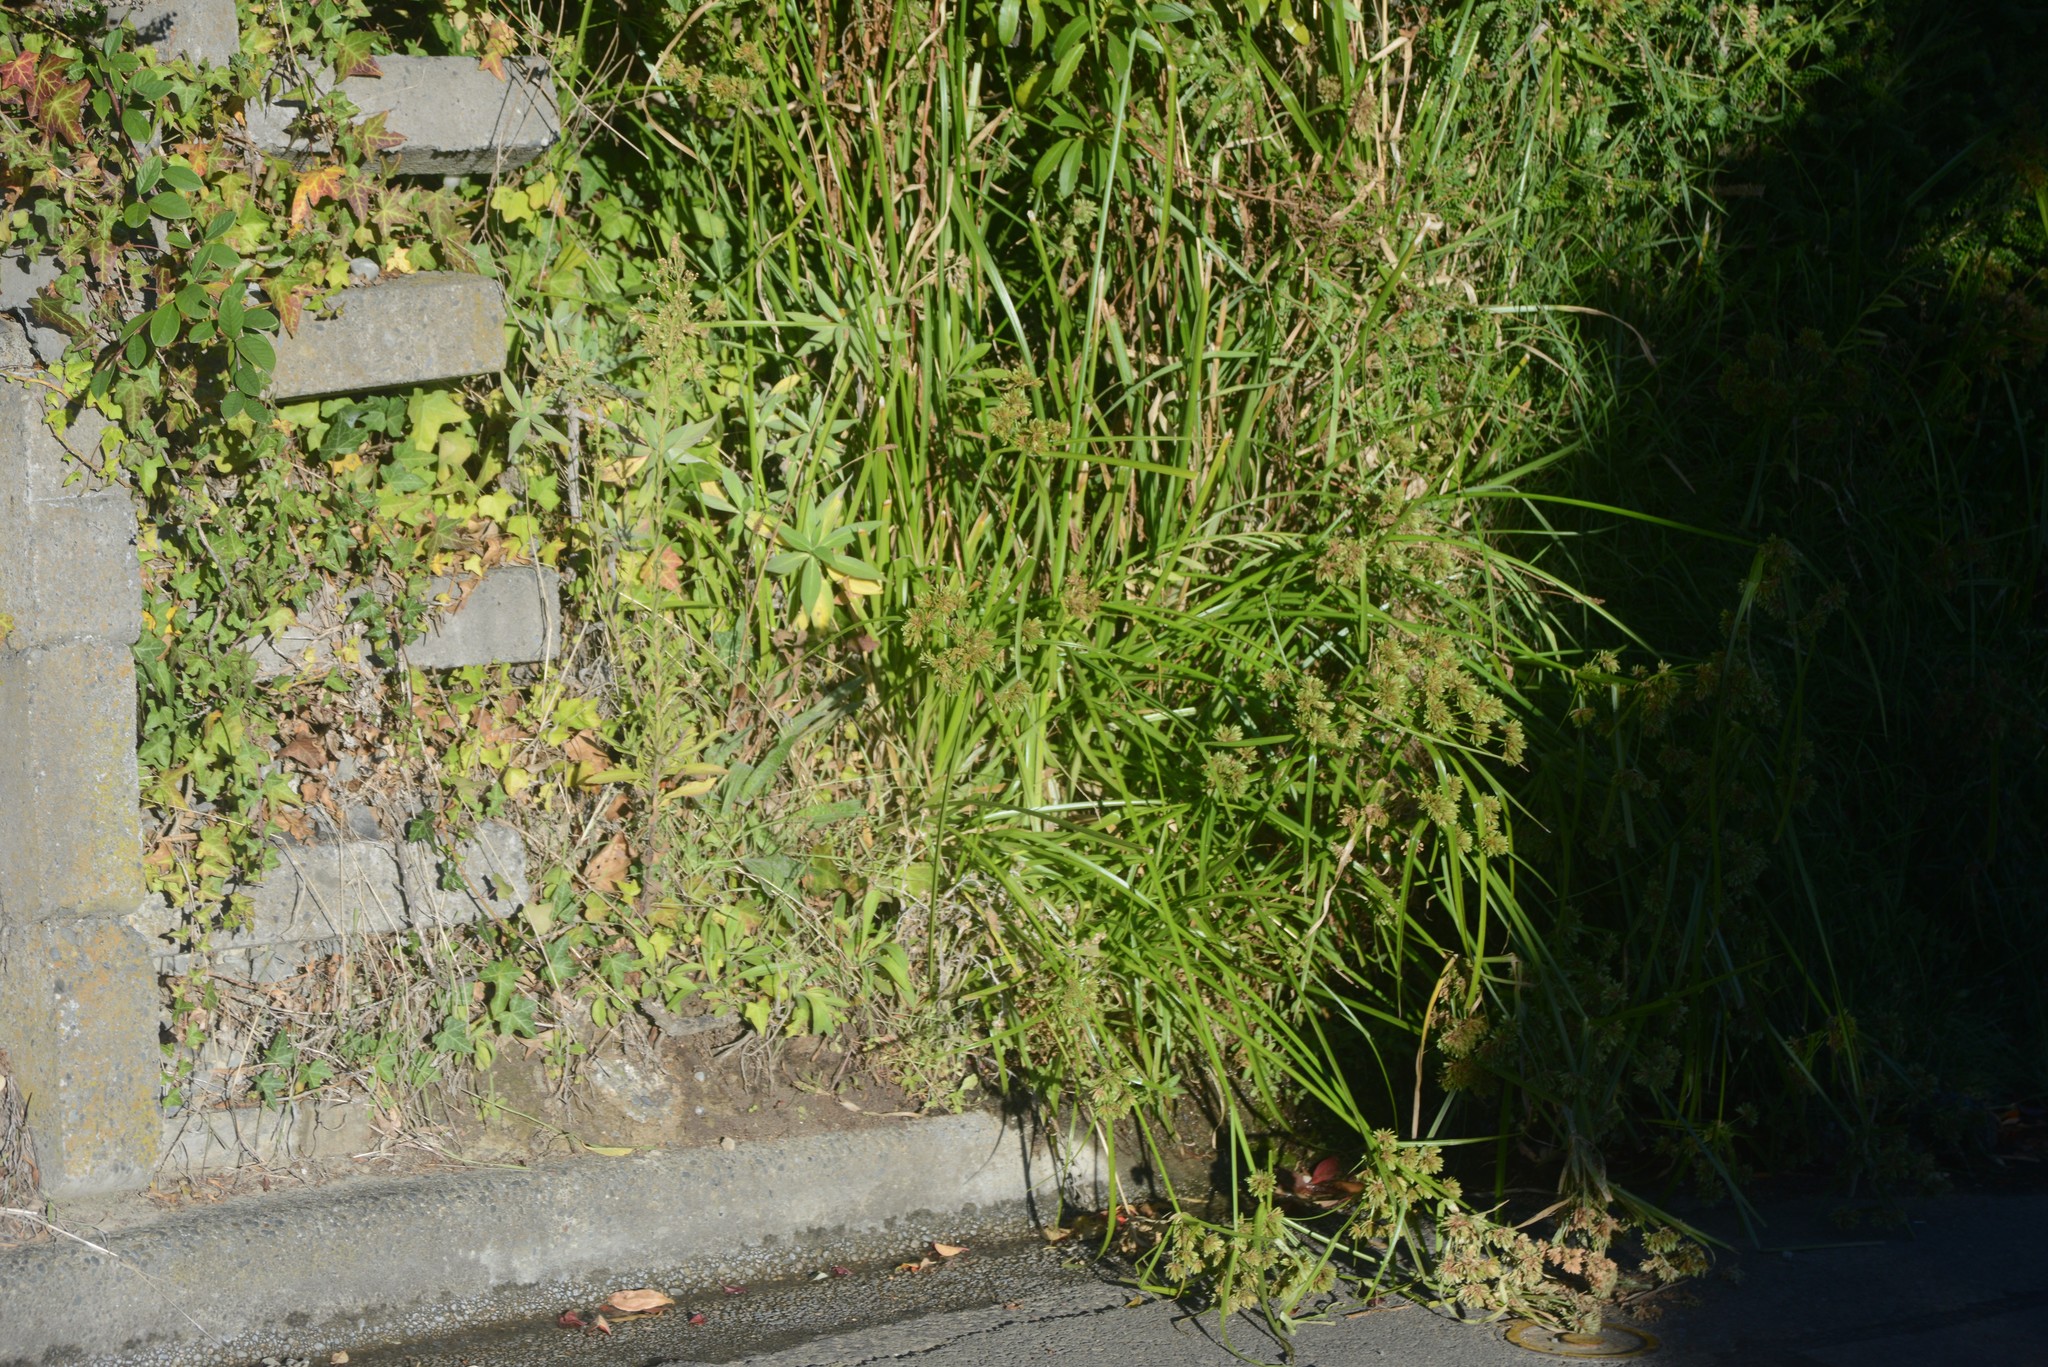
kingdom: Plantae
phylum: Tracheophyta
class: Liliopsida
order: Poales
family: Cyperaceae
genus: Cyperus
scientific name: Cyperus eragrostis
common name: Tall flatsedge
